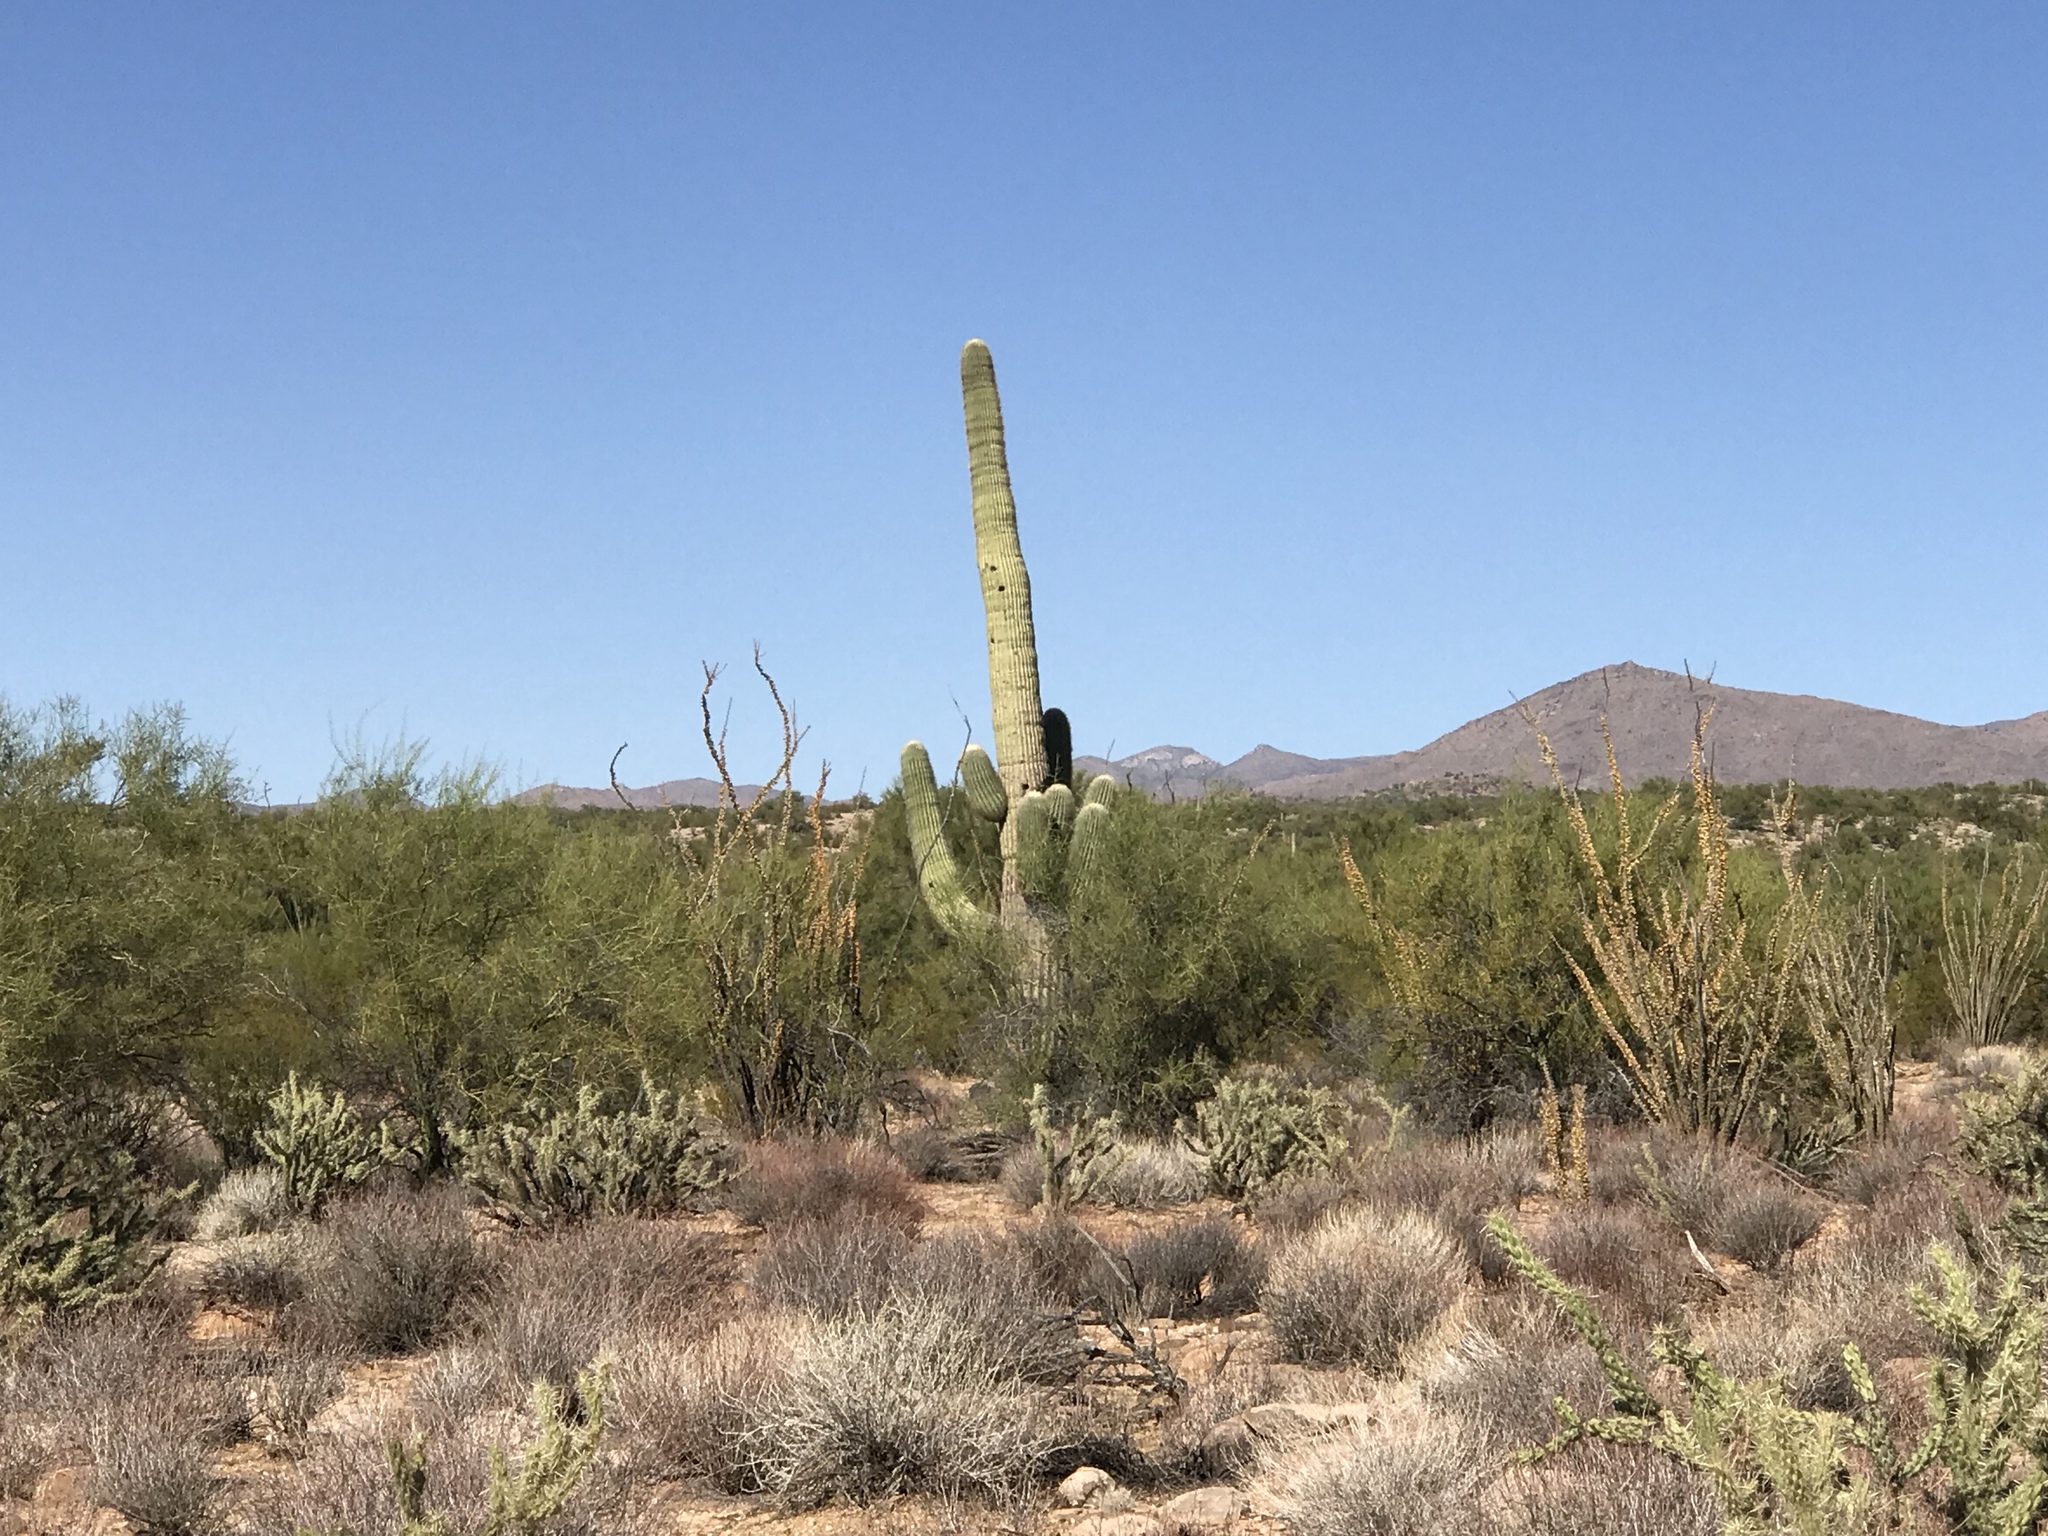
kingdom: Plantae
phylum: Tracheophyta
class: Magnoliopsida
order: Caryophyllales
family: Cactaceae
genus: Carnegiea
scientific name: Carnegiea gigantea
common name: Saguaro
